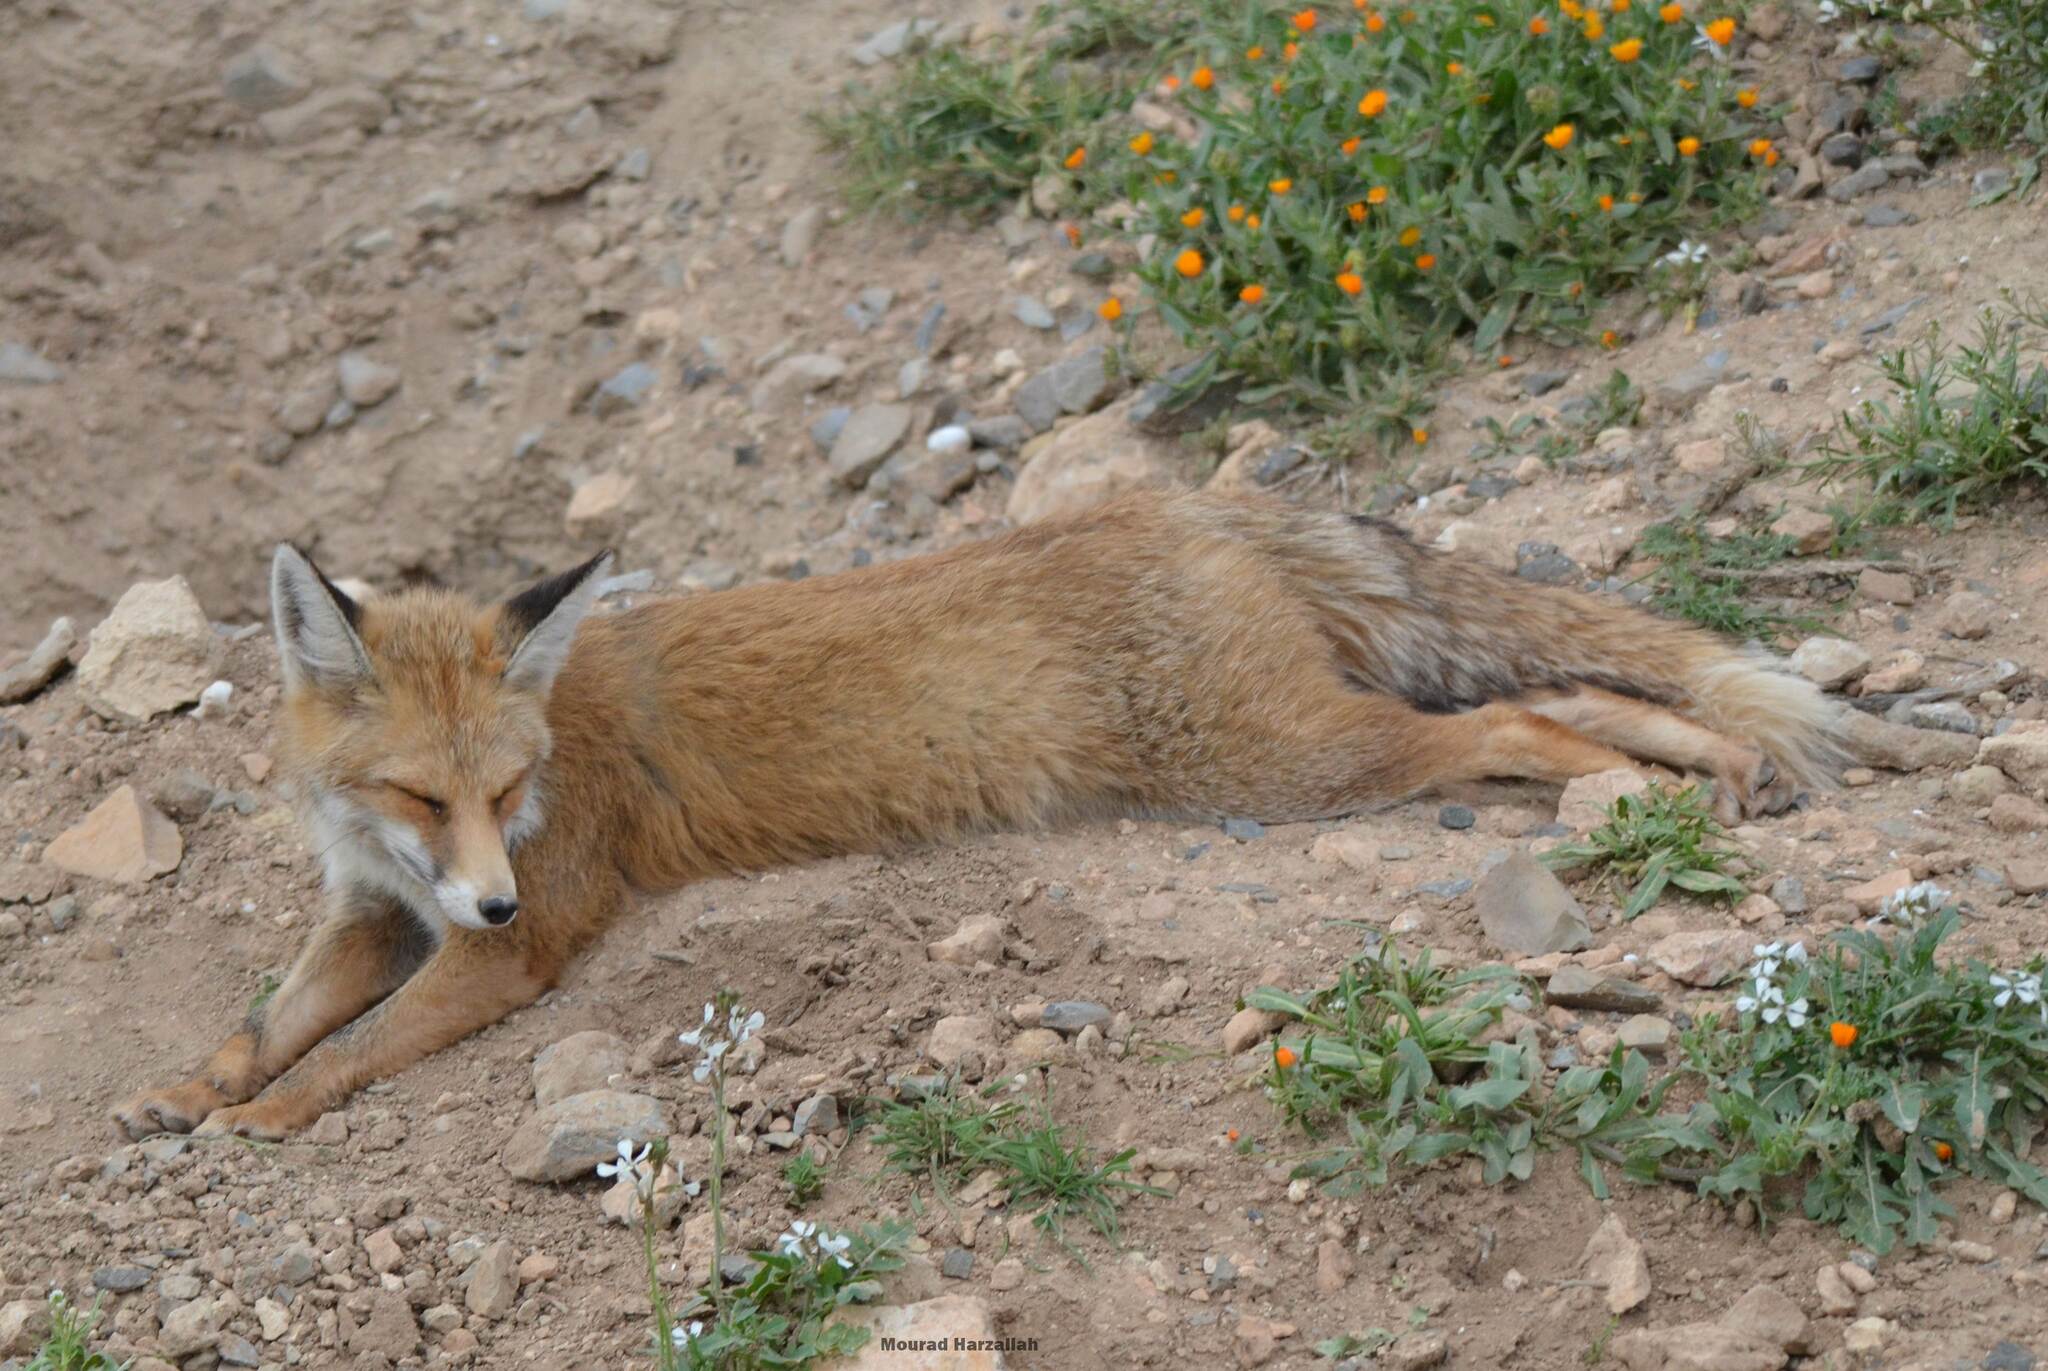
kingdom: Animalia
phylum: Chordata
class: Mammalia
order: Carnivora
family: Canidae
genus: Vulpes
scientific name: Vulpes vulpes
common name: Red fox
